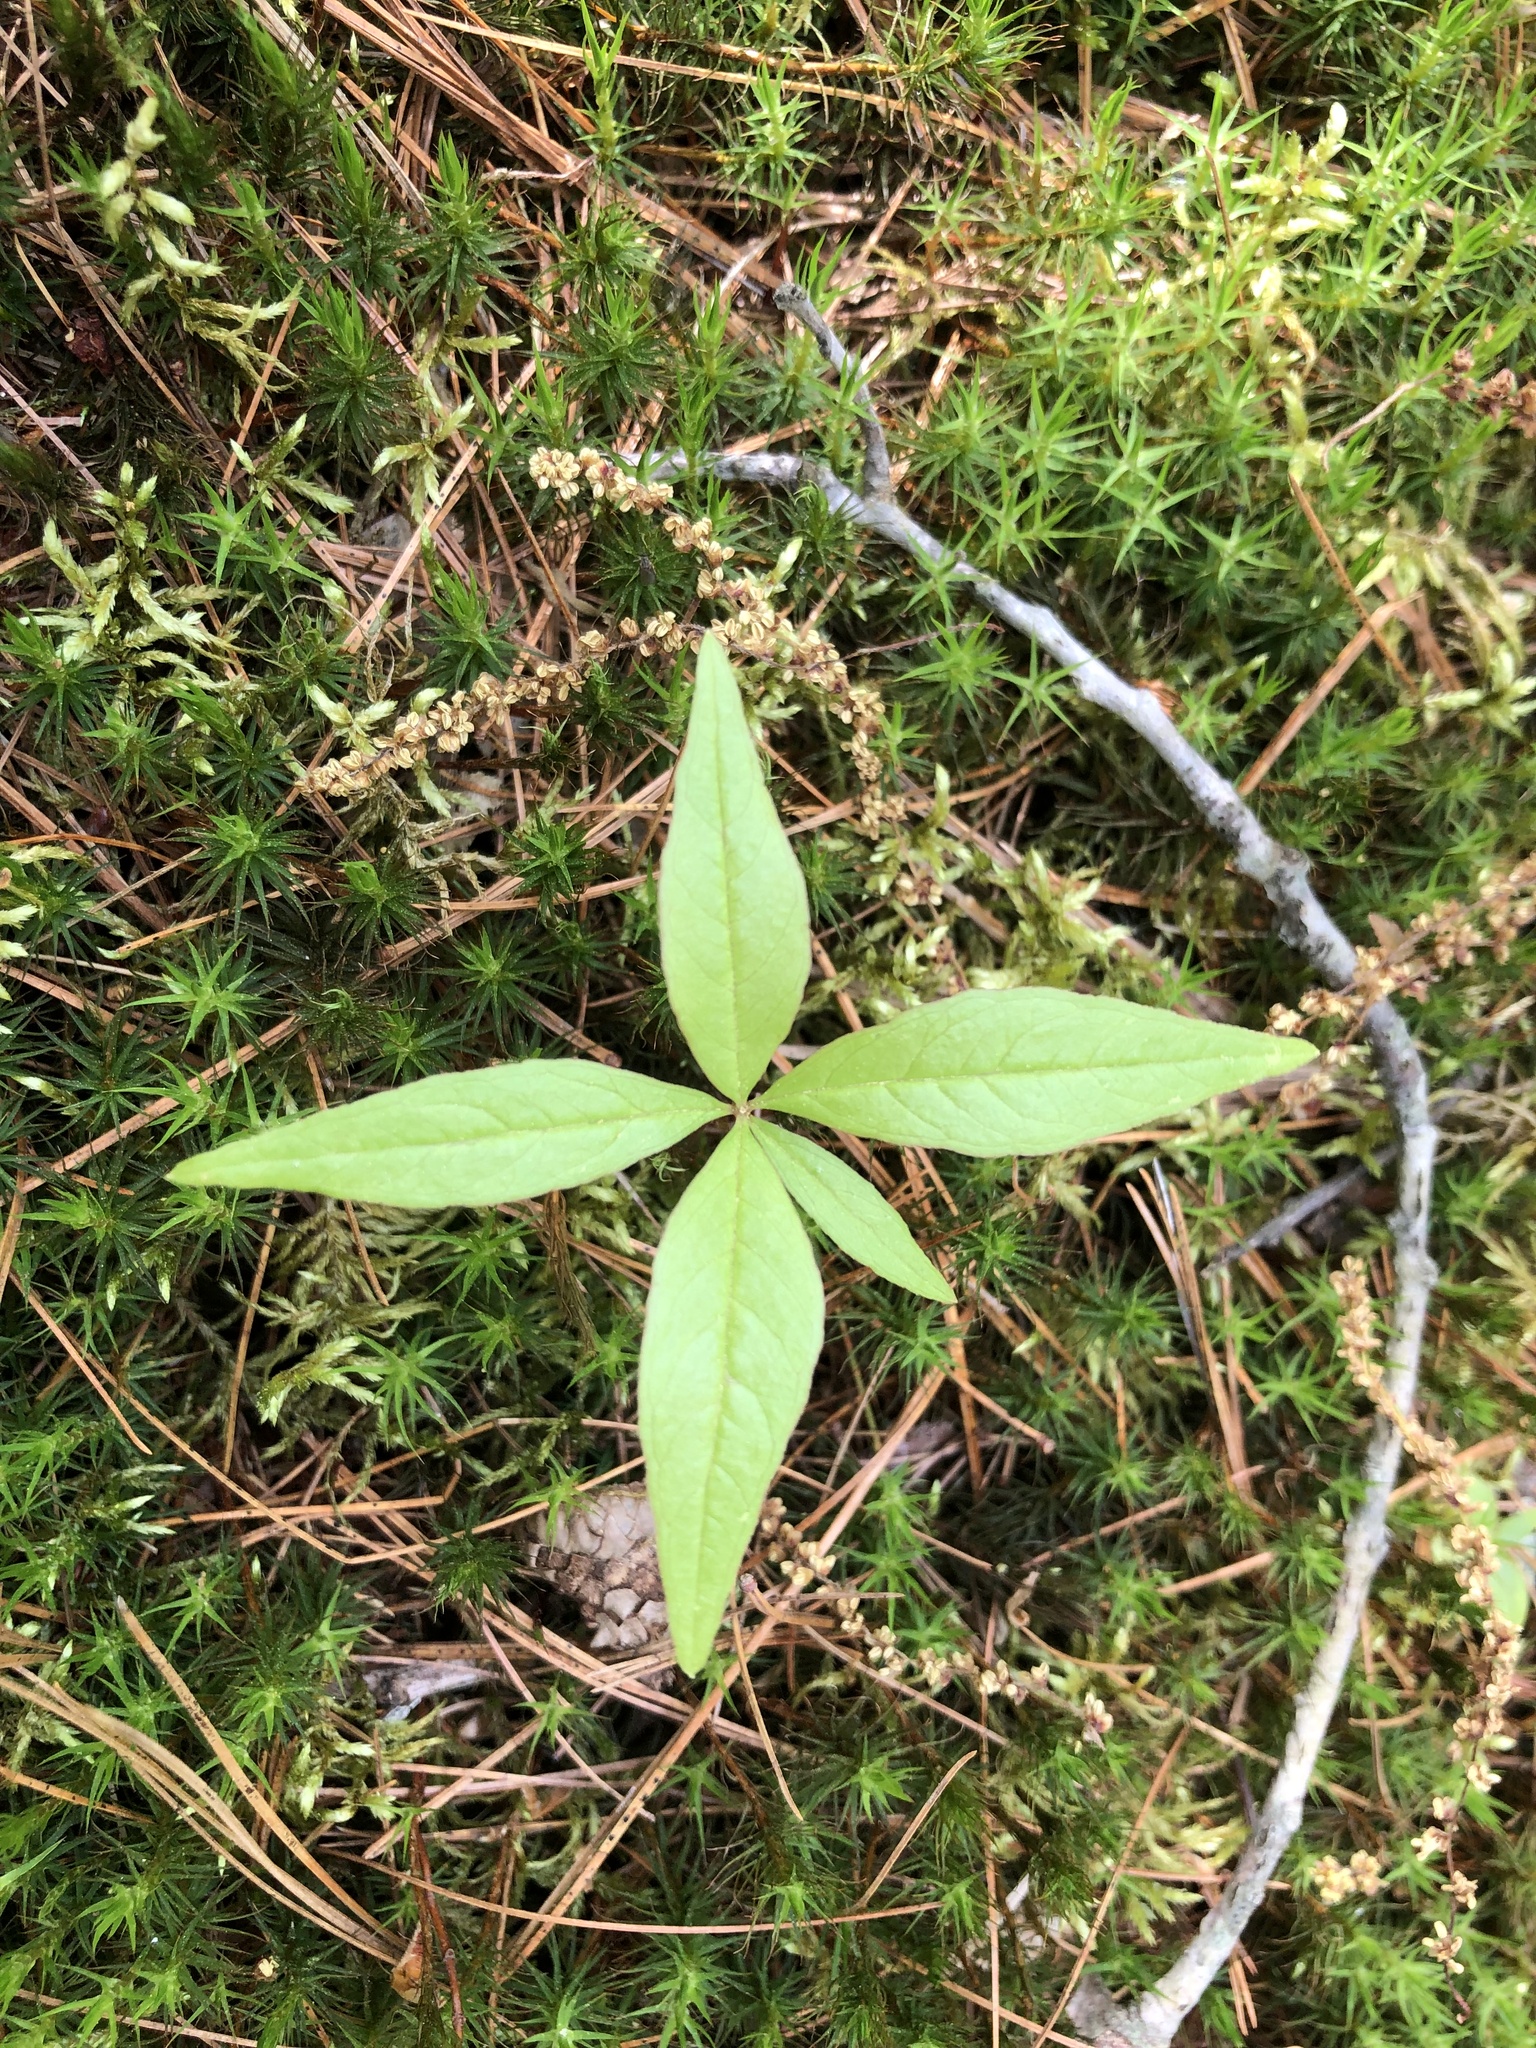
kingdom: Plantae
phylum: Tracheophyta
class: Magnoliopsida
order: Ericales
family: Primulaceae
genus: Lysimachia
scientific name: Lysimachia borealis
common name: American starflower
